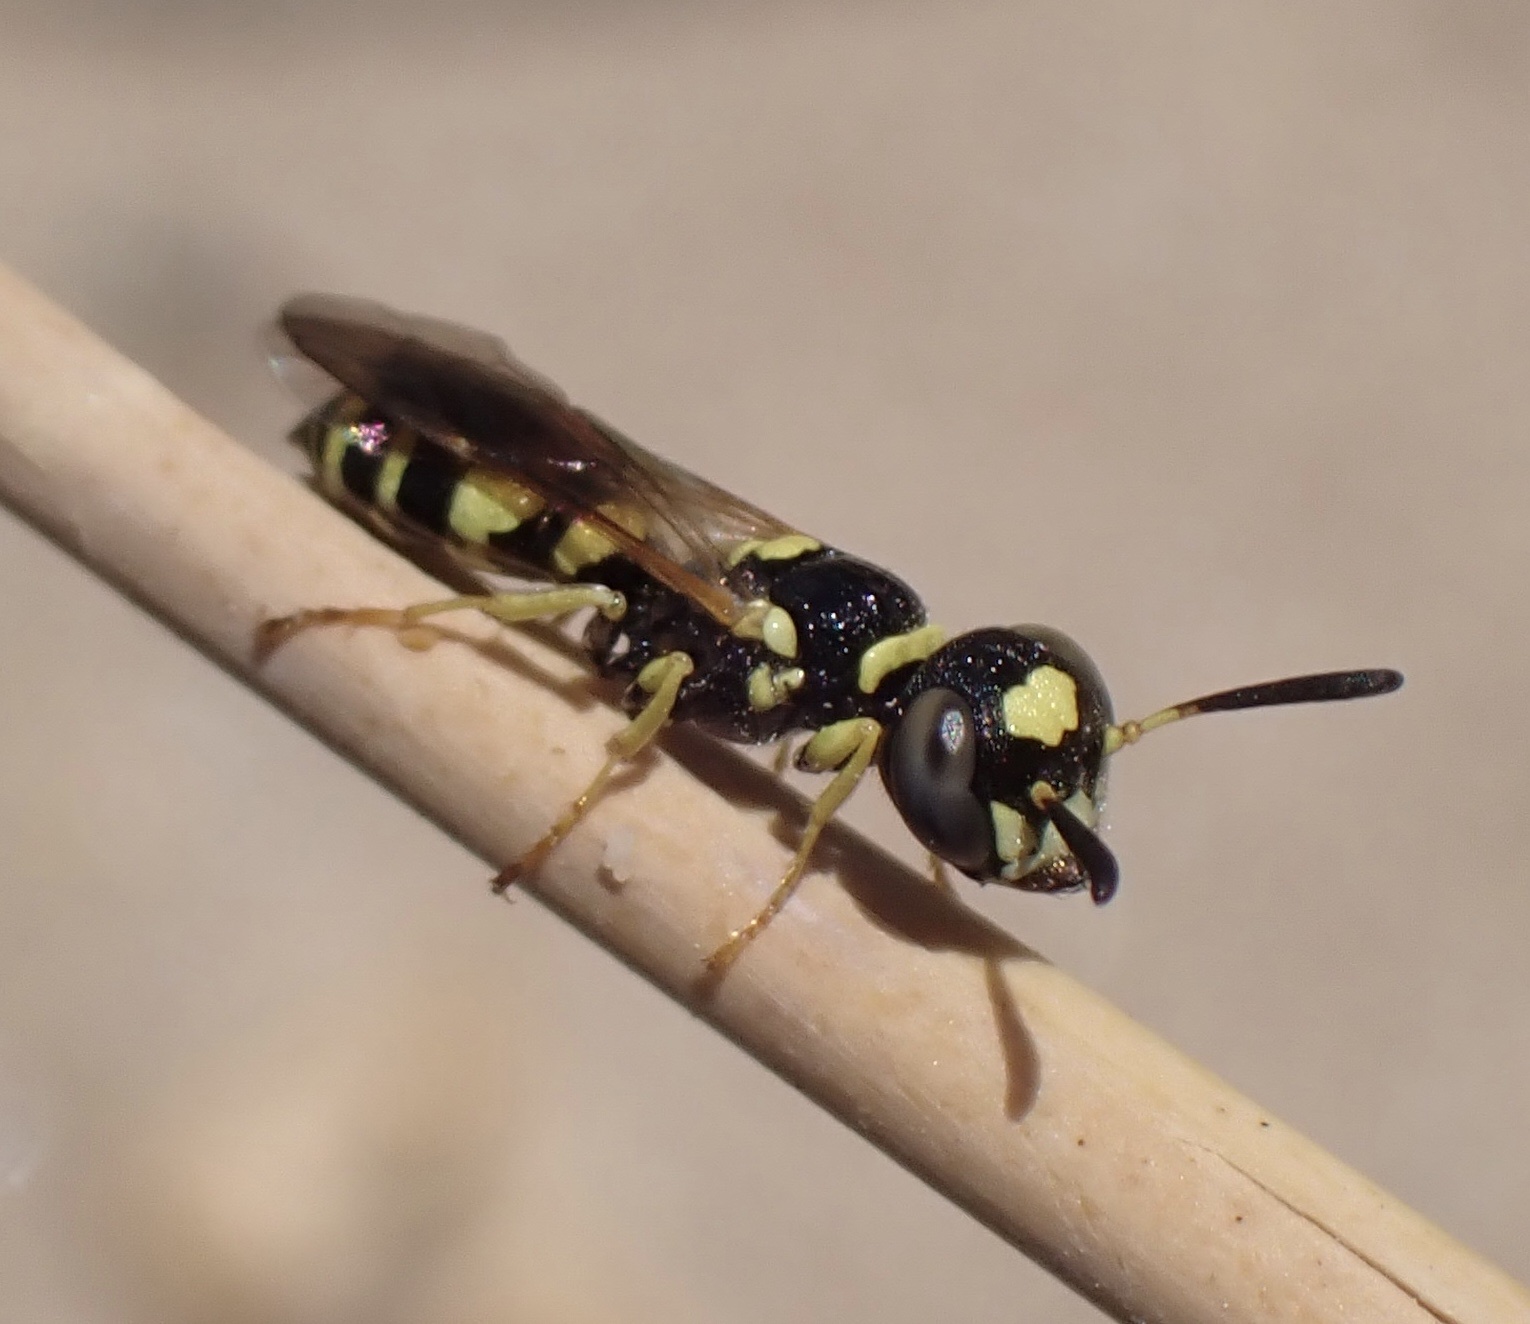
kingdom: Animalia
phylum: Arthropoda
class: Insecta
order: Hymenoptera
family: Crabronidae
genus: Philanthus
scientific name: Philanthus pulchellus
